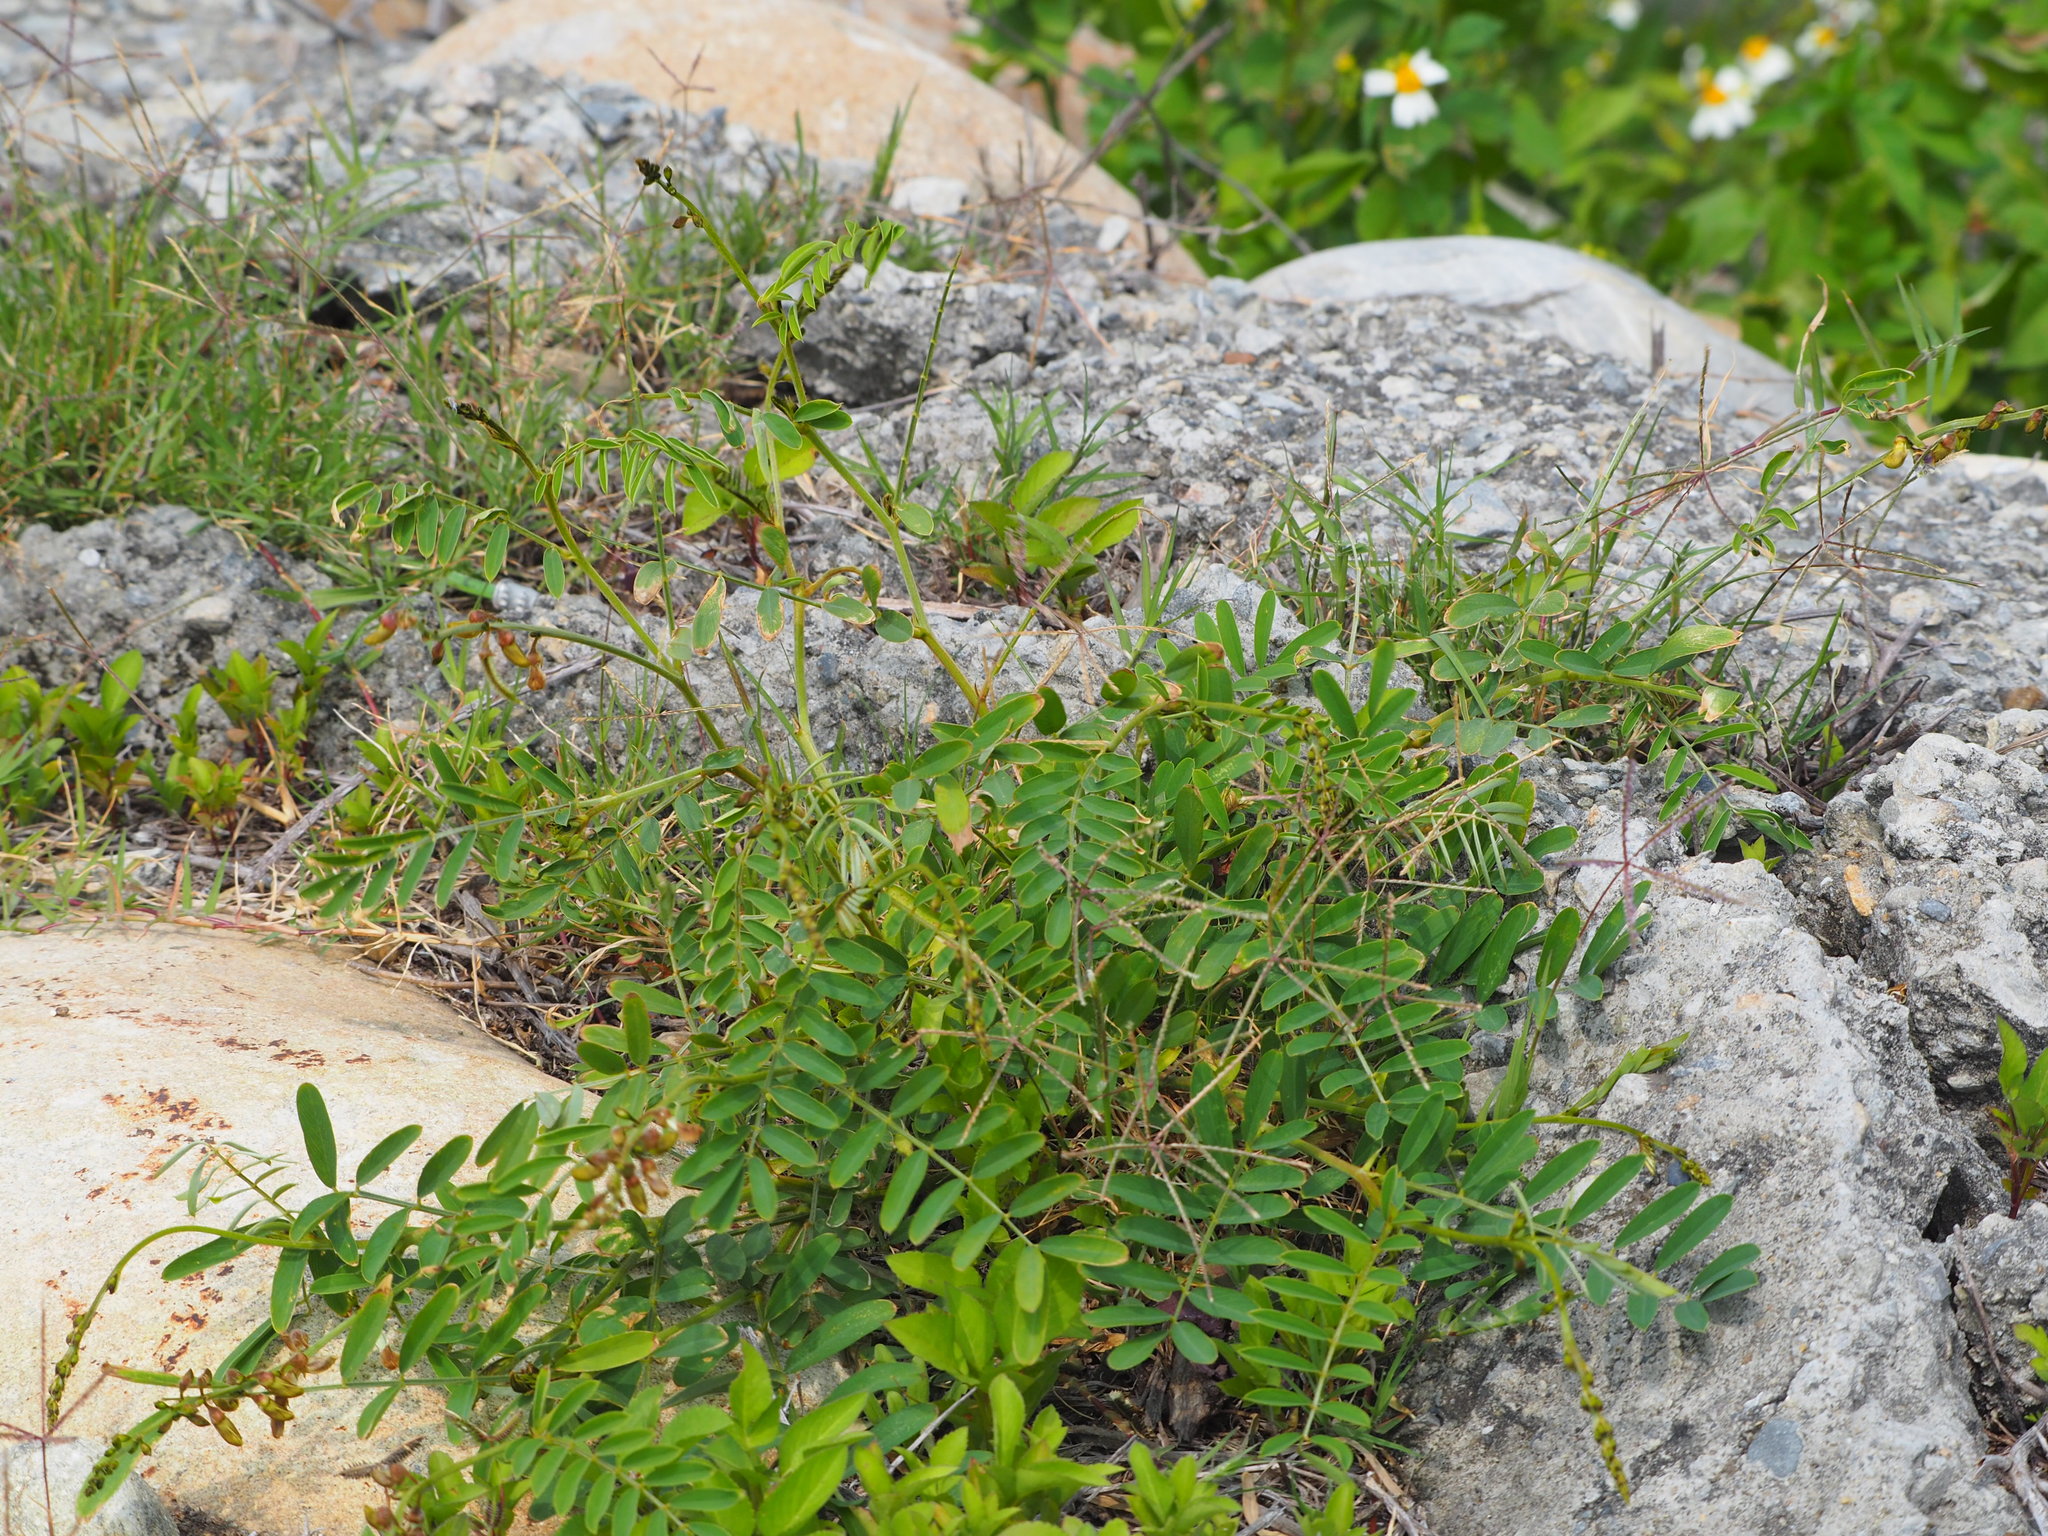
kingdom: Plantae
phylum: Tracheophyta
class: Magnoliopsida
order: Fabales
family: Fabaceae
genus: Tephrosia
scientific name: Tephrosia candida
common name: White tephrosia
